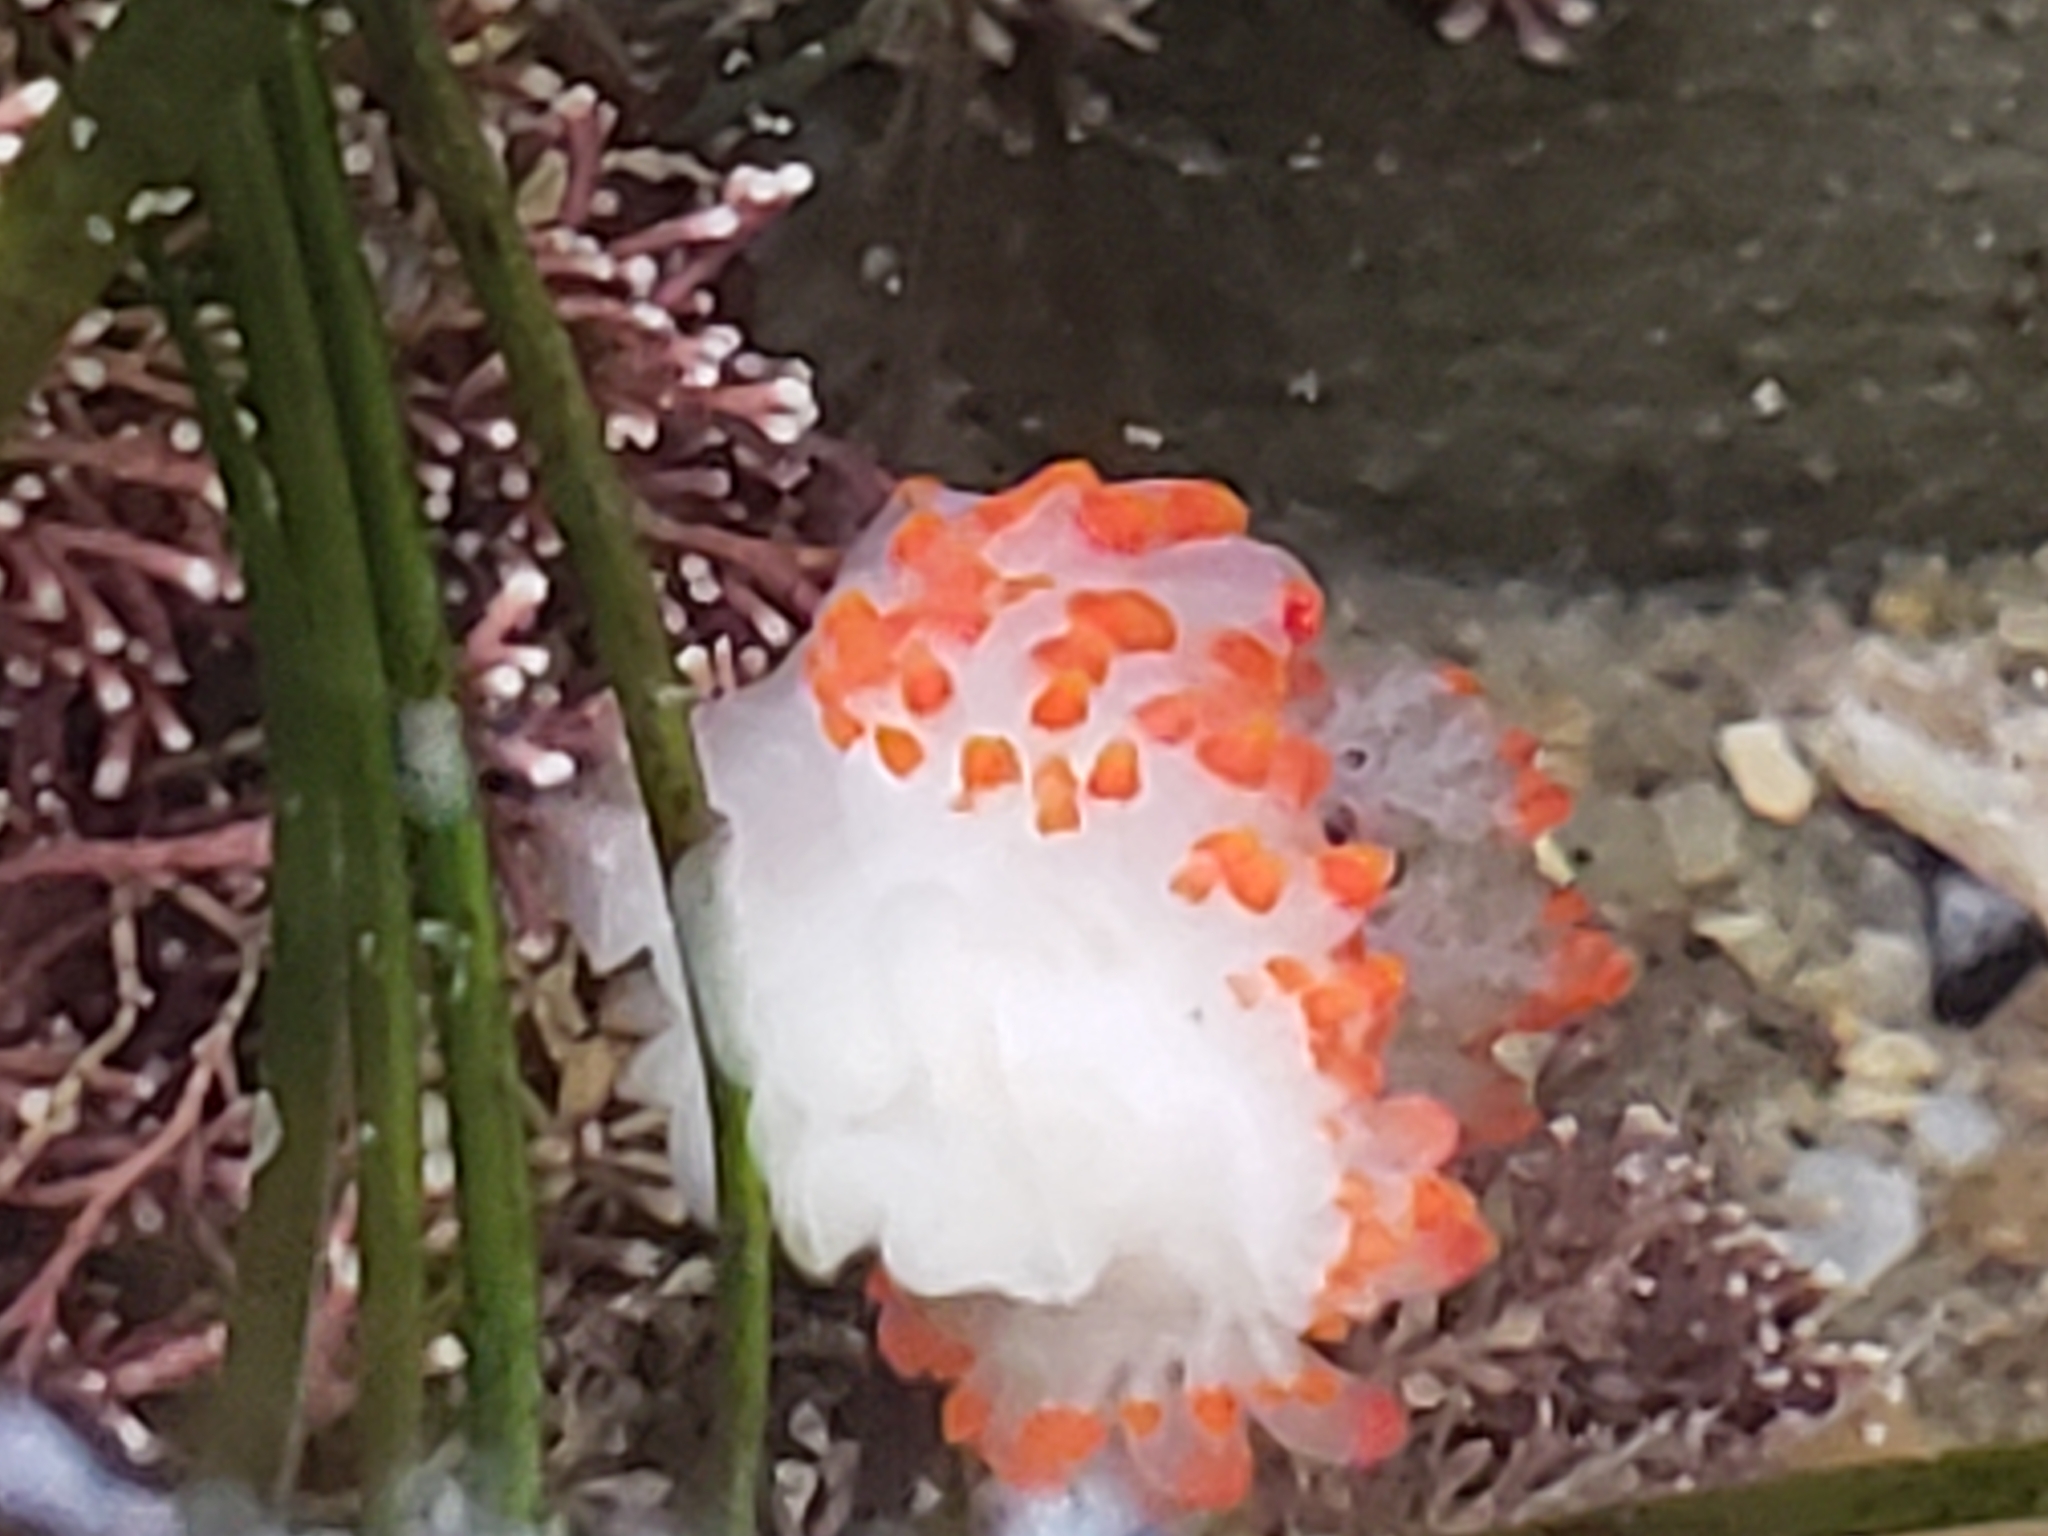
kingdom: Animalia
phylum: Mollusca
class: Gastropoda
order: Nudibranchia
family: Polyceridae
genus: Limacia
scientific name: Limacia mcdonaldi
